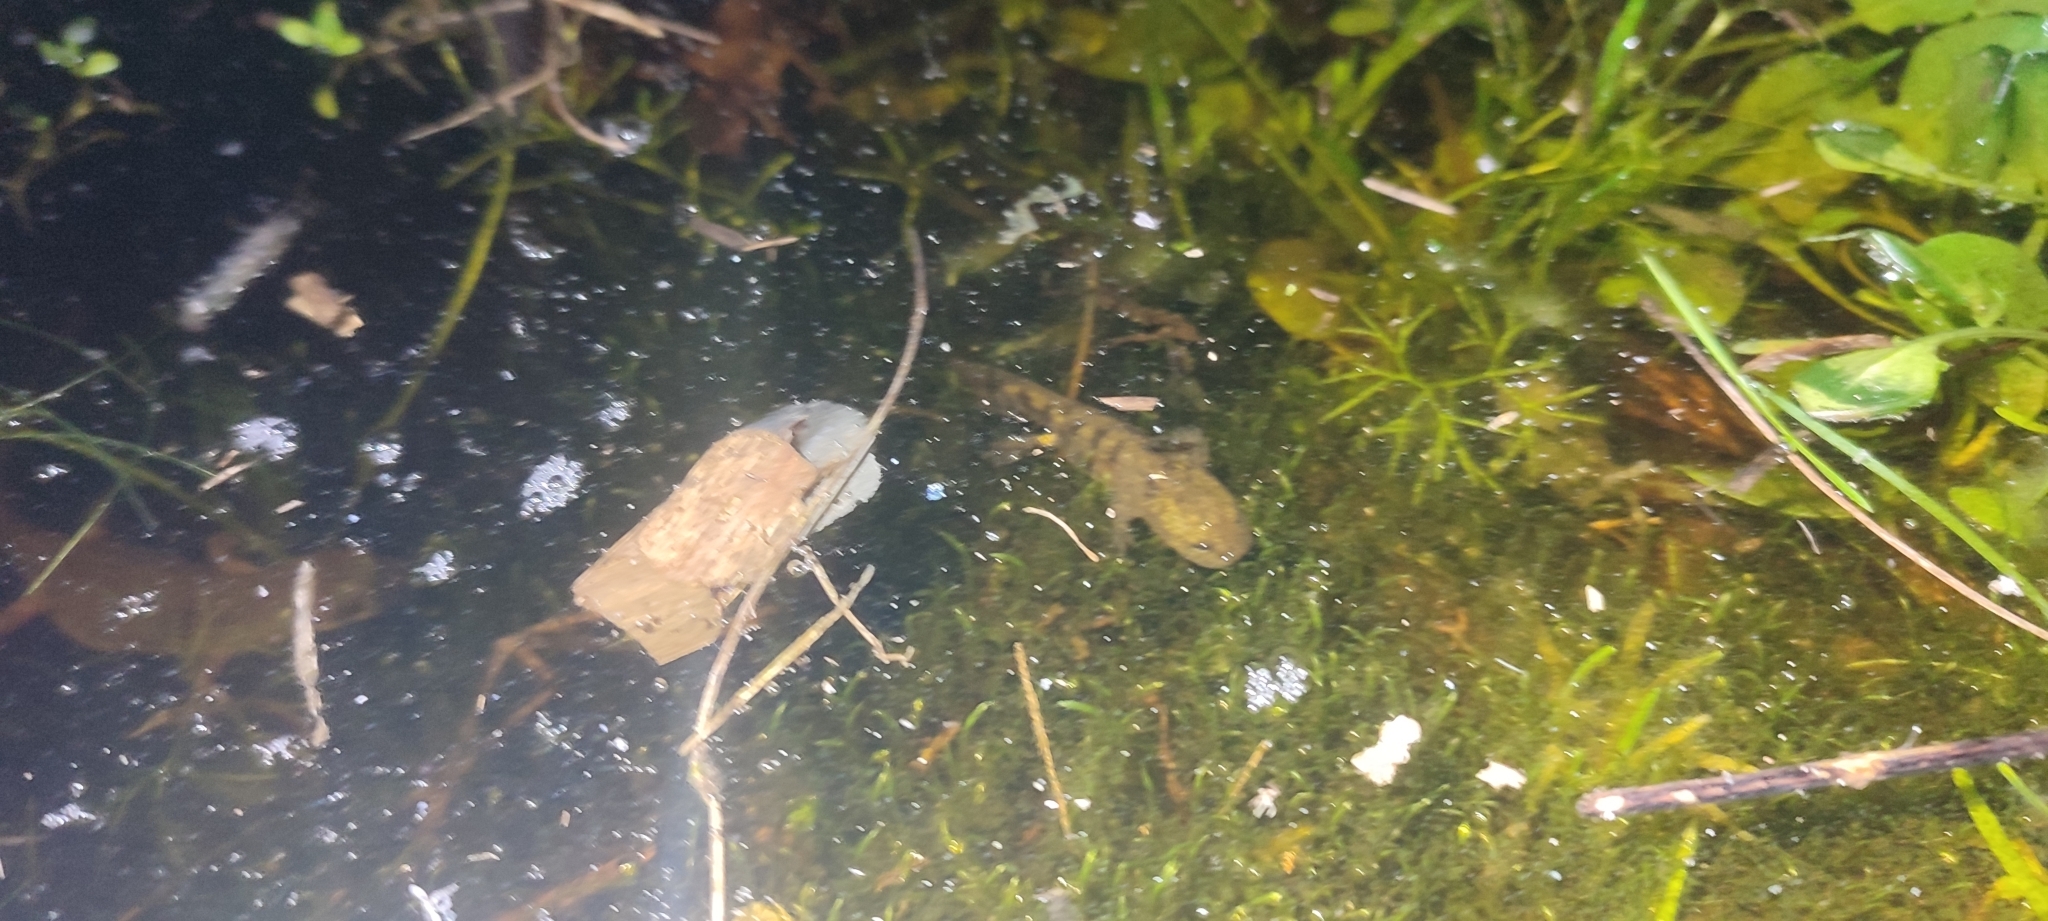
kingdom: Animalia
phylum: Chordata
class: Amphibia
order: Caudata
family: Salamandridae
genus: Salamandra
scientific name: Salamandra salamandra
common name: Fire salamander
